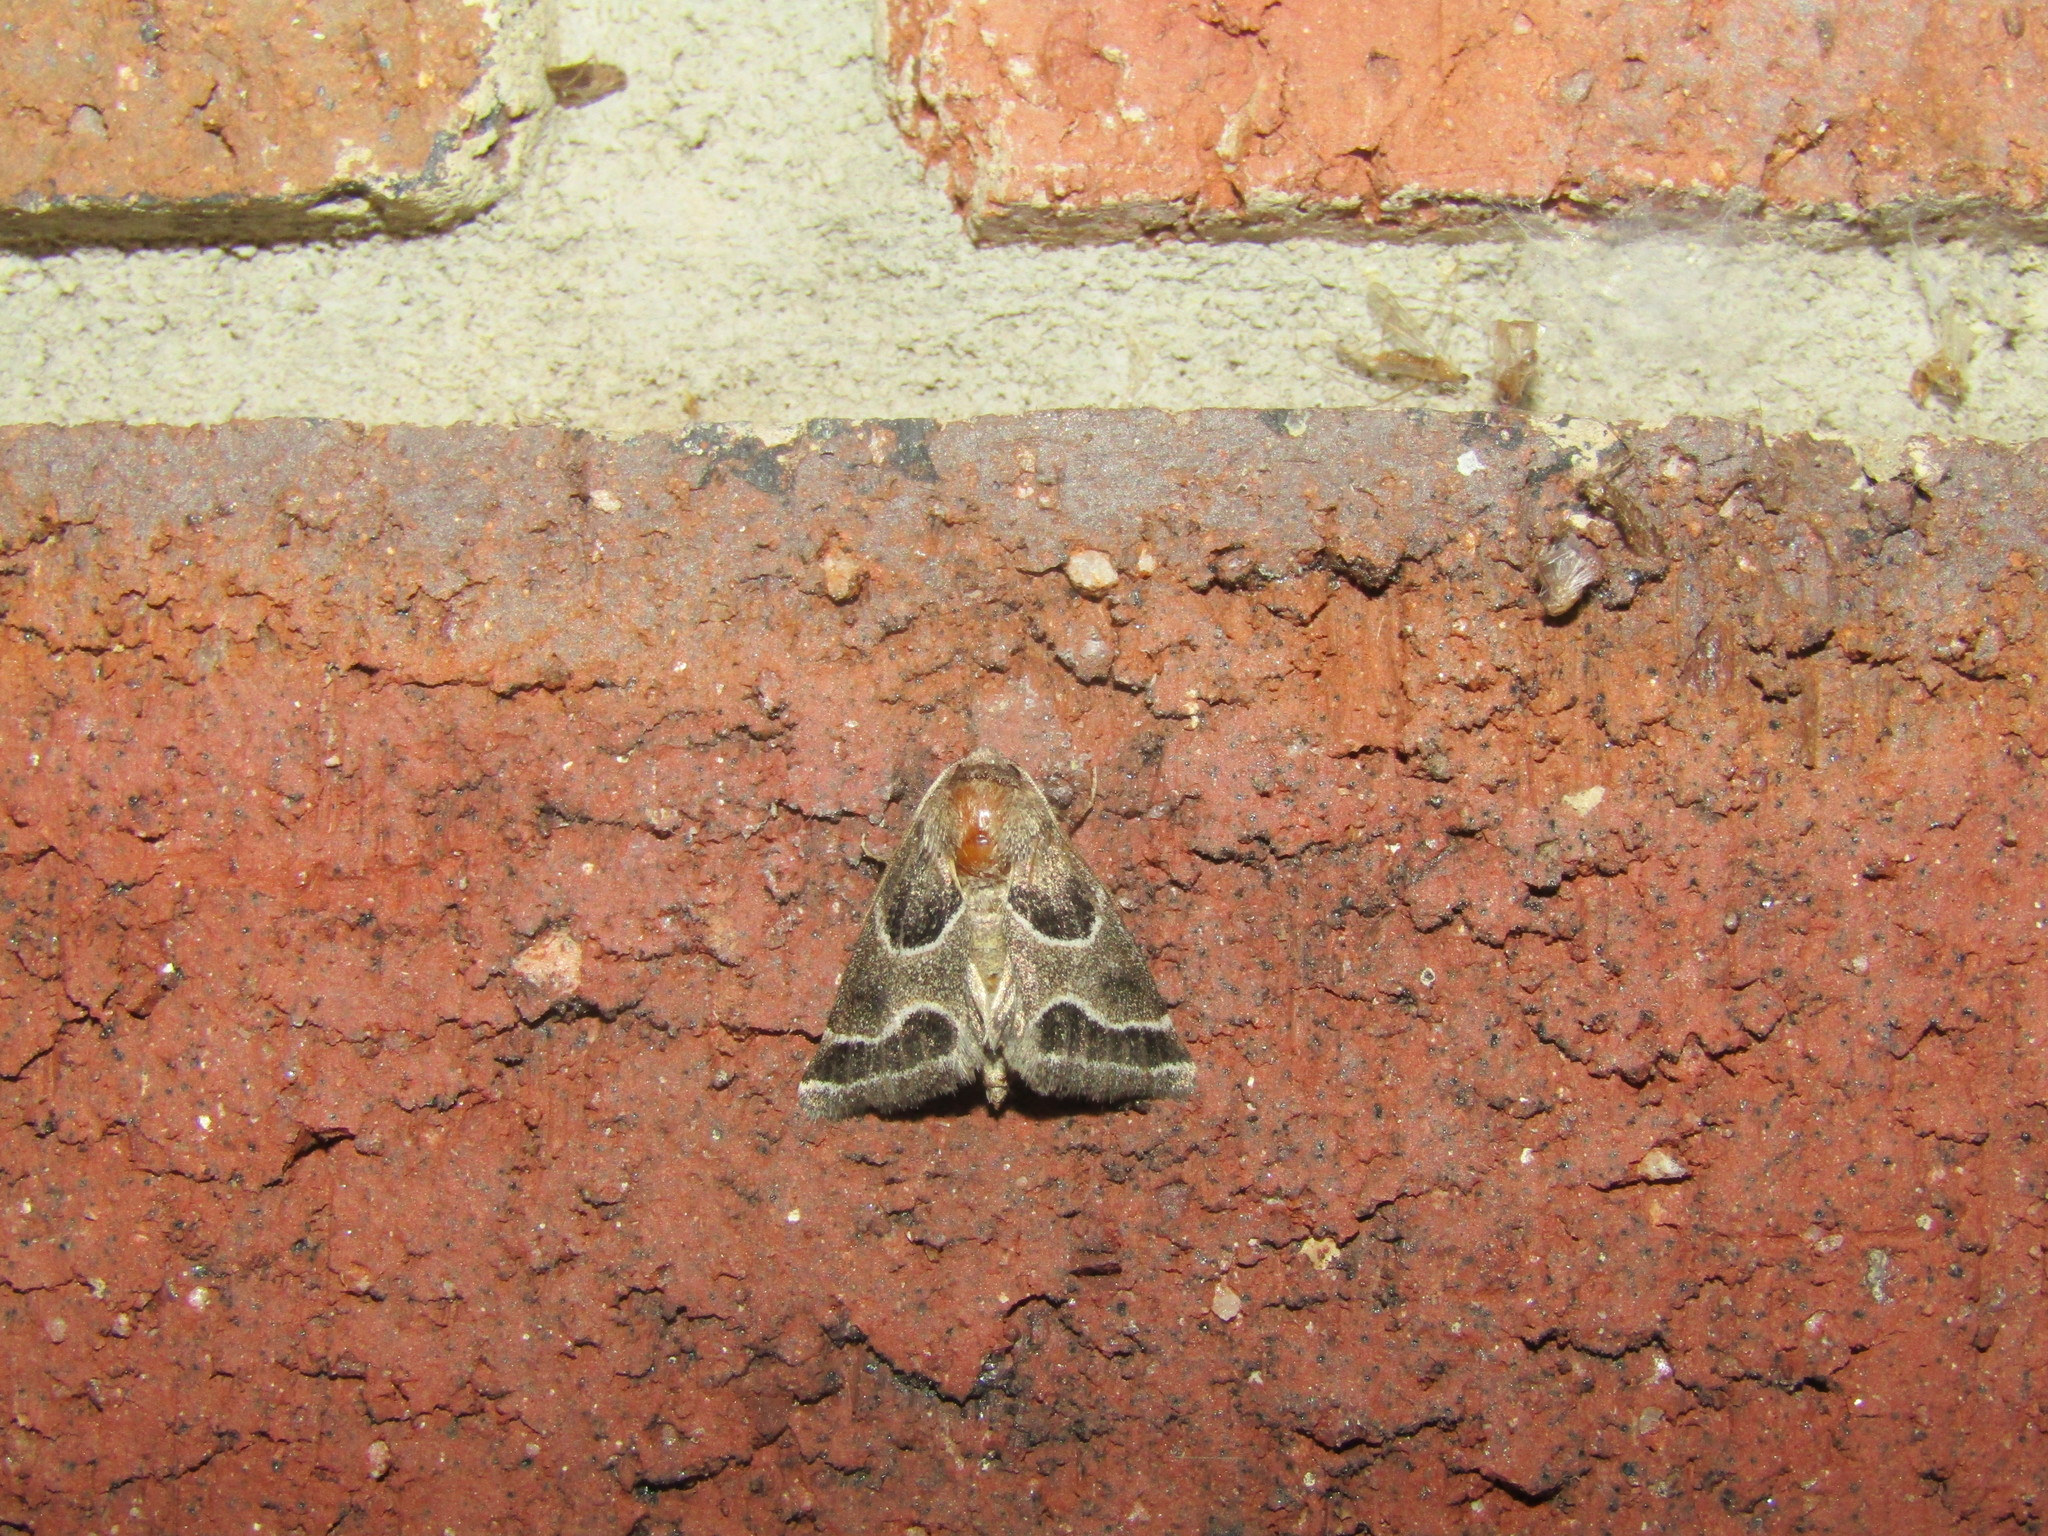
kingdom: Animalia
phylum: Arthropoda
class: Insecta
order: Lepidoptera
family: Noctuidae
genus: Schinia
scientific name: Schinia rivulosa
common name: Scarce meal-moth
